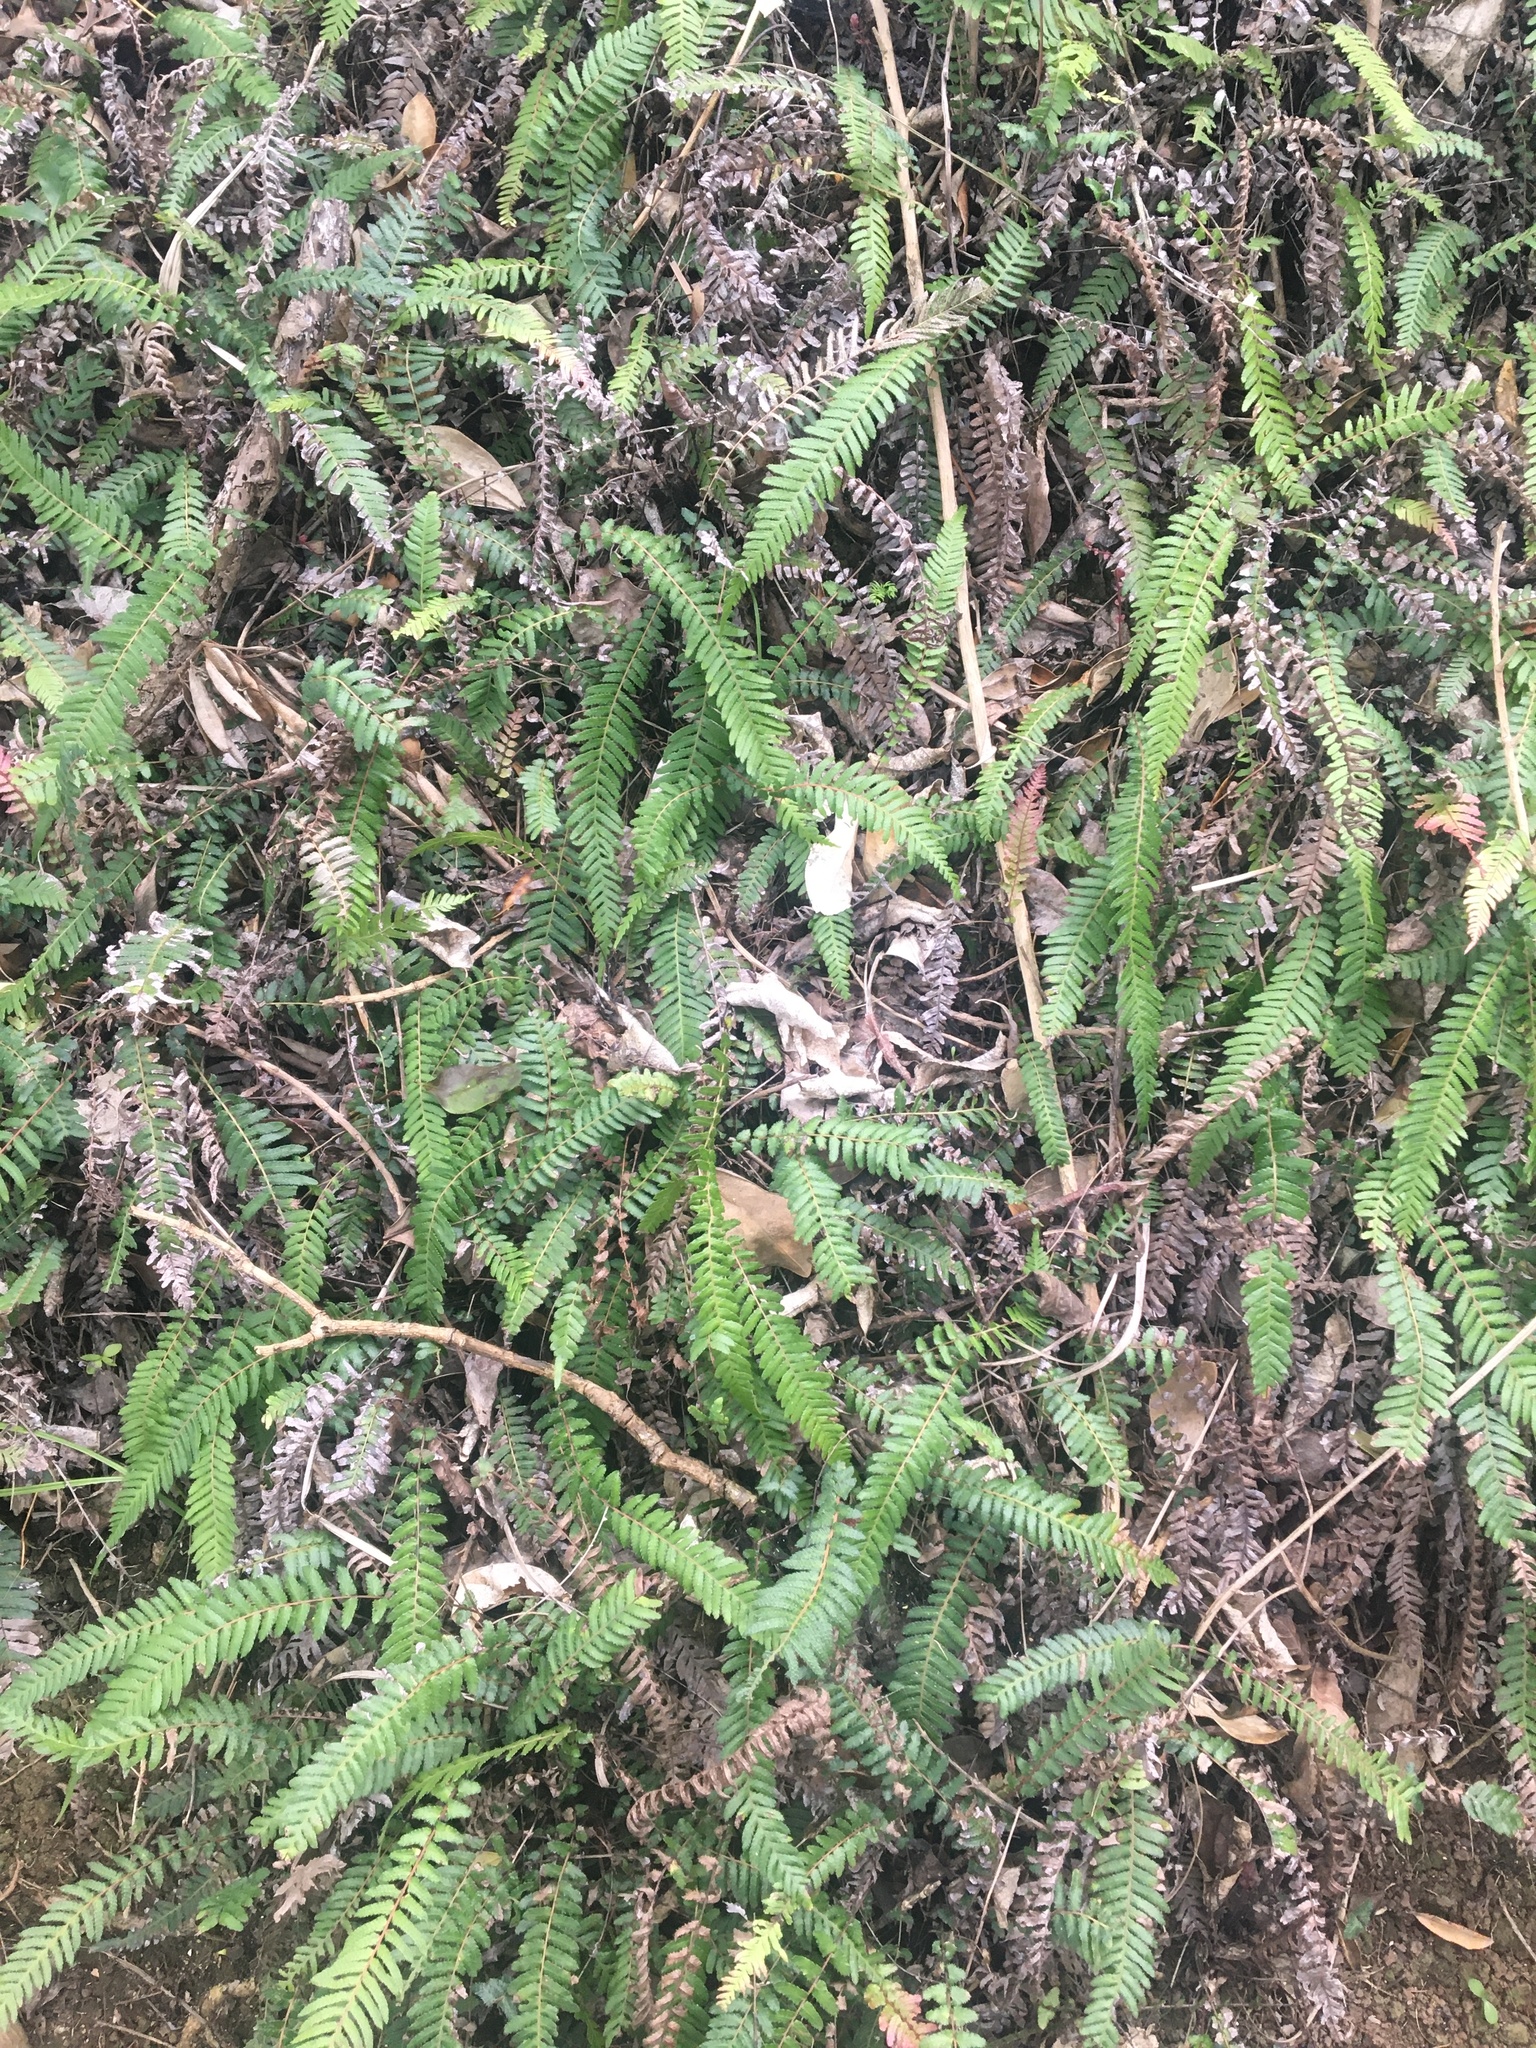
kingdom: Plantae
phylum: Tracheophyta
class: Polypodiopsida
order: Polypodiales
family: Blechnaceae
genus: Doodia
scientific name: Doodia australis
